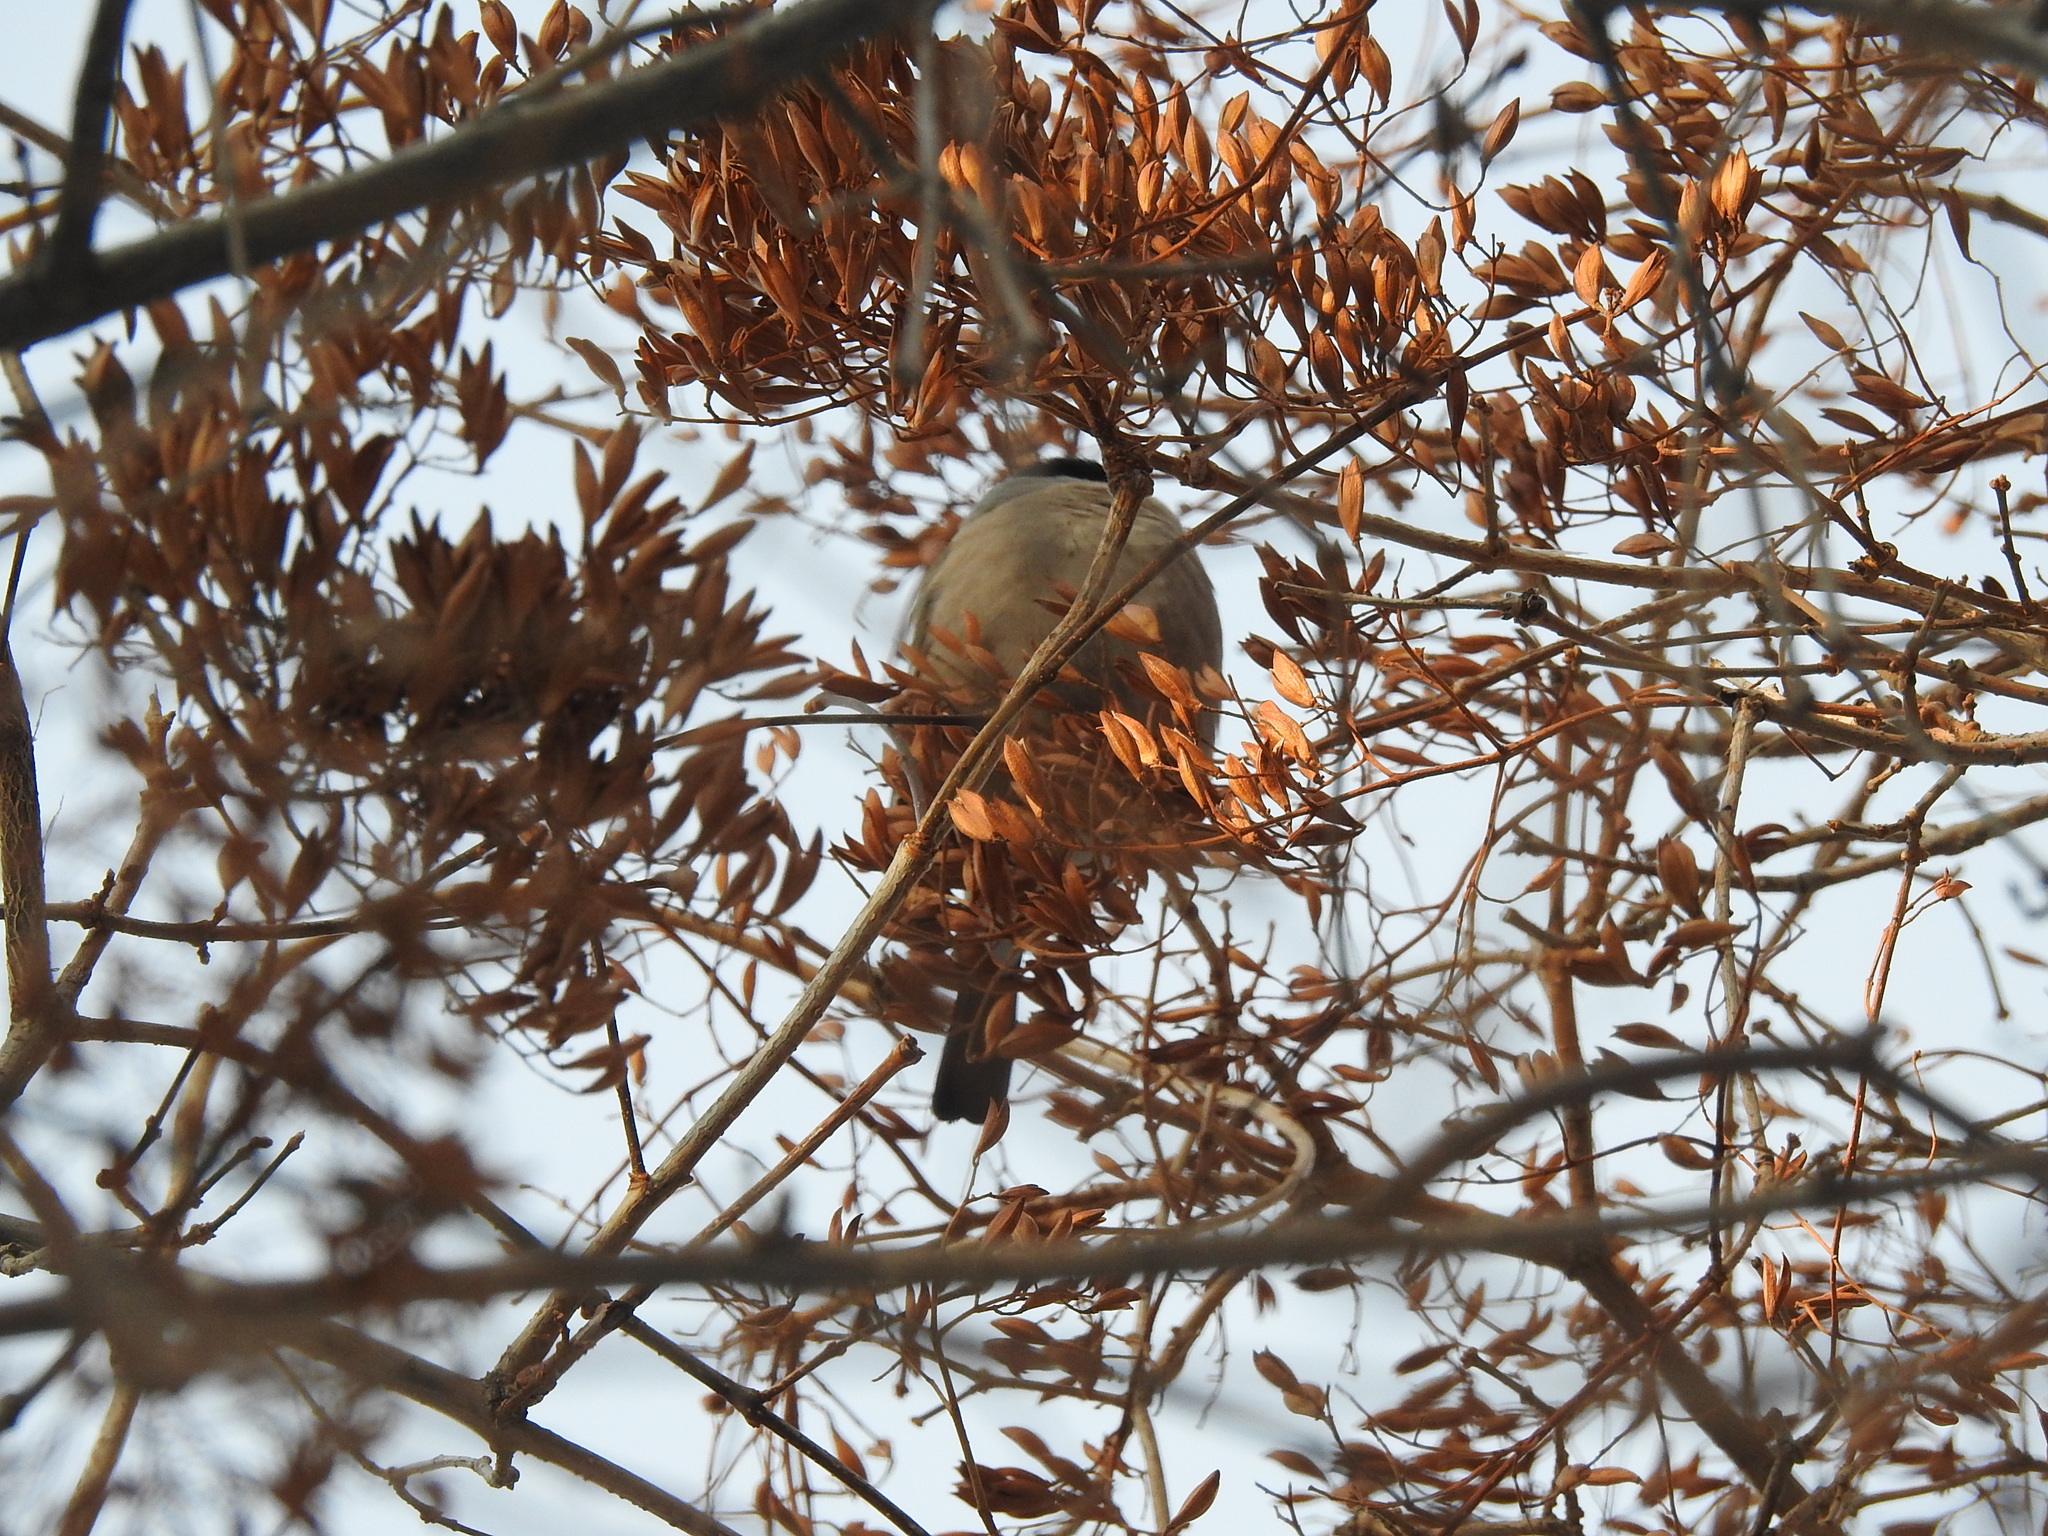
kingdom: Animalia
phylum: Chordata
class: Aves
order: Passeriformes
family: Fringillidae
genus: Pyrrhula
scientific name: Pyrrhula pyrrhula
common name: Eurasian bullfinch
